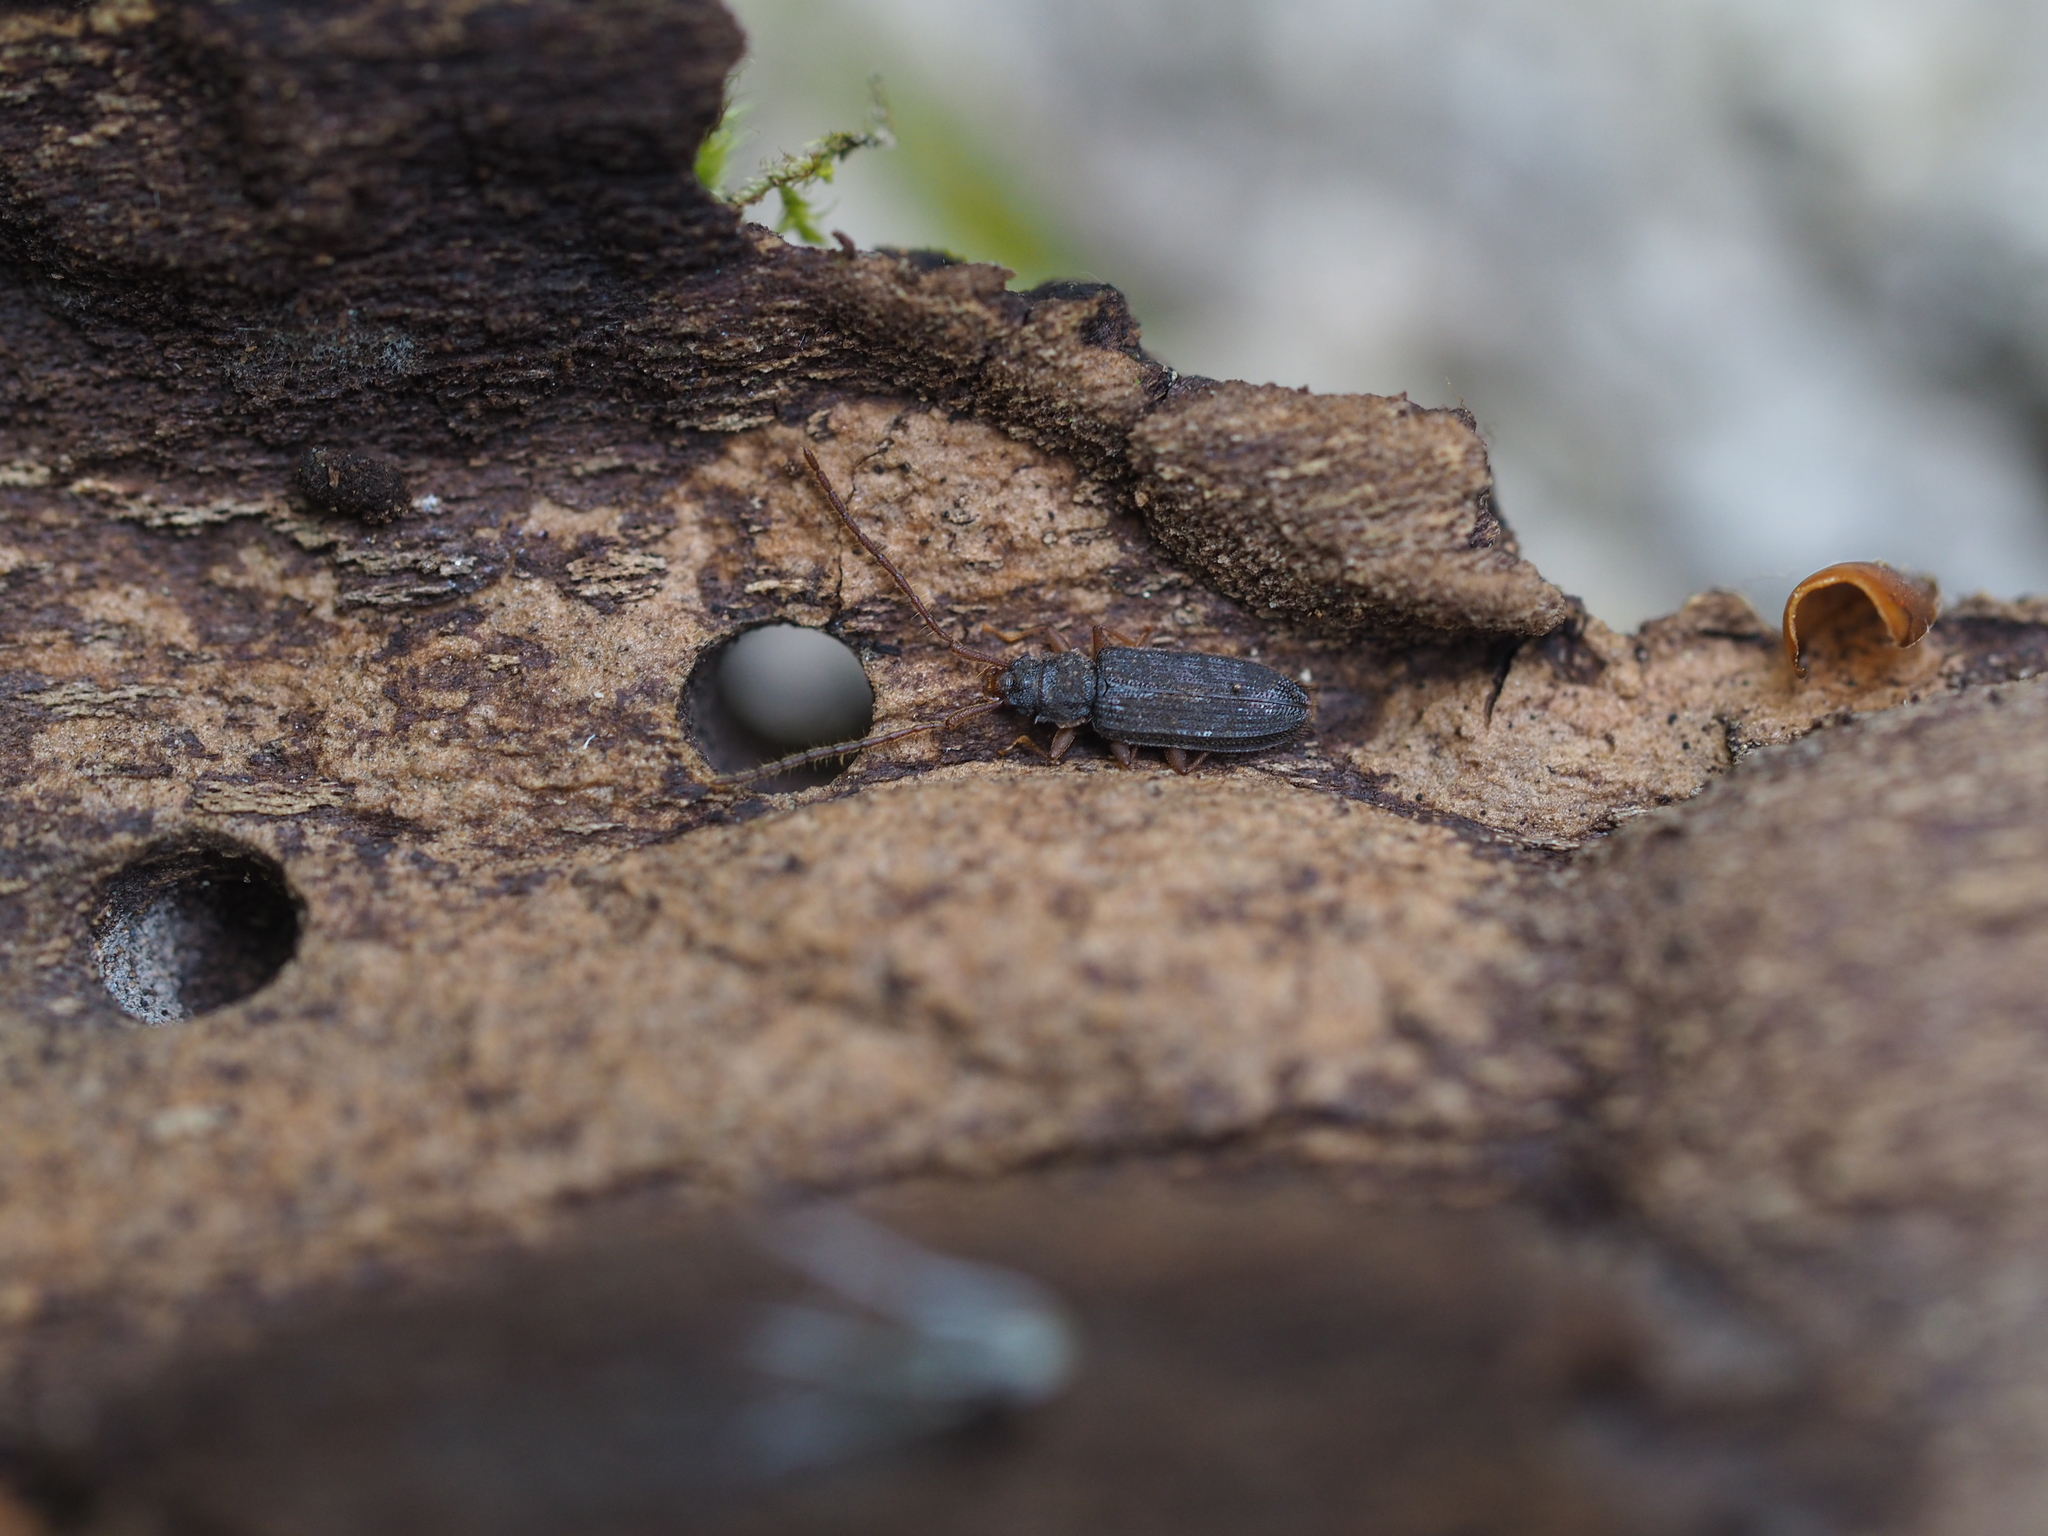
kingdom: Animalia
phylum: Arthropoda
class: Insecta
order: Coleoptera
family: Silvanidae
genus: Uleiota
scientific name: Uleiota planatus
